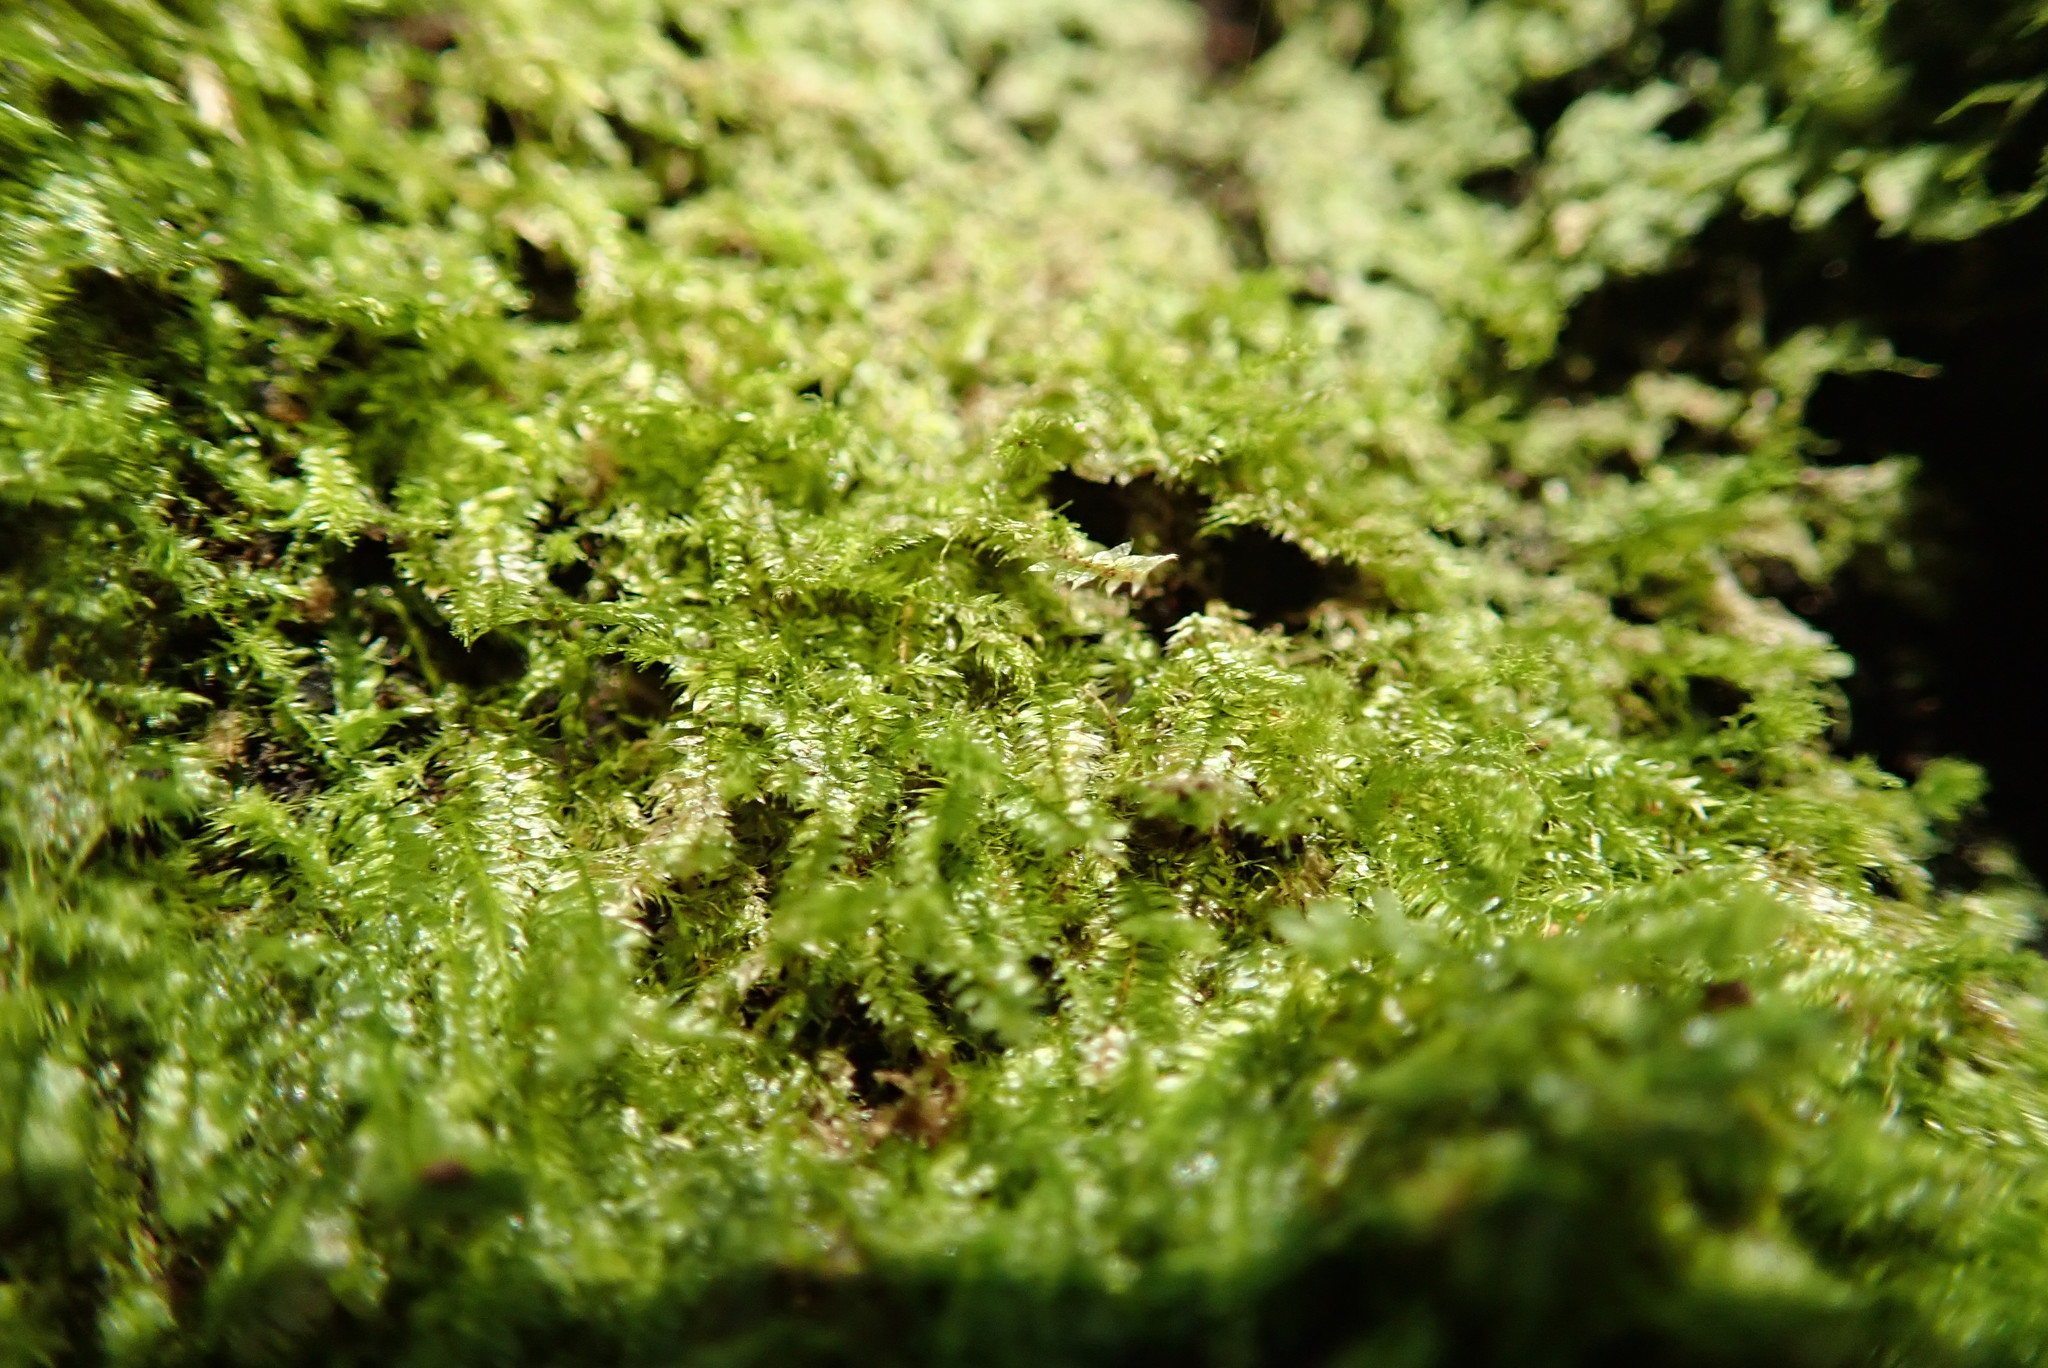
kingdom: Plantae
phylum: Bryophyta
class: Bryopsida
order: Hypnales
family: Plagiotheciaceae
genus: Pseudotaxiphyllum
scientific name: Pseudotaxiphyllum elegans
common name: Elegant silk moss
